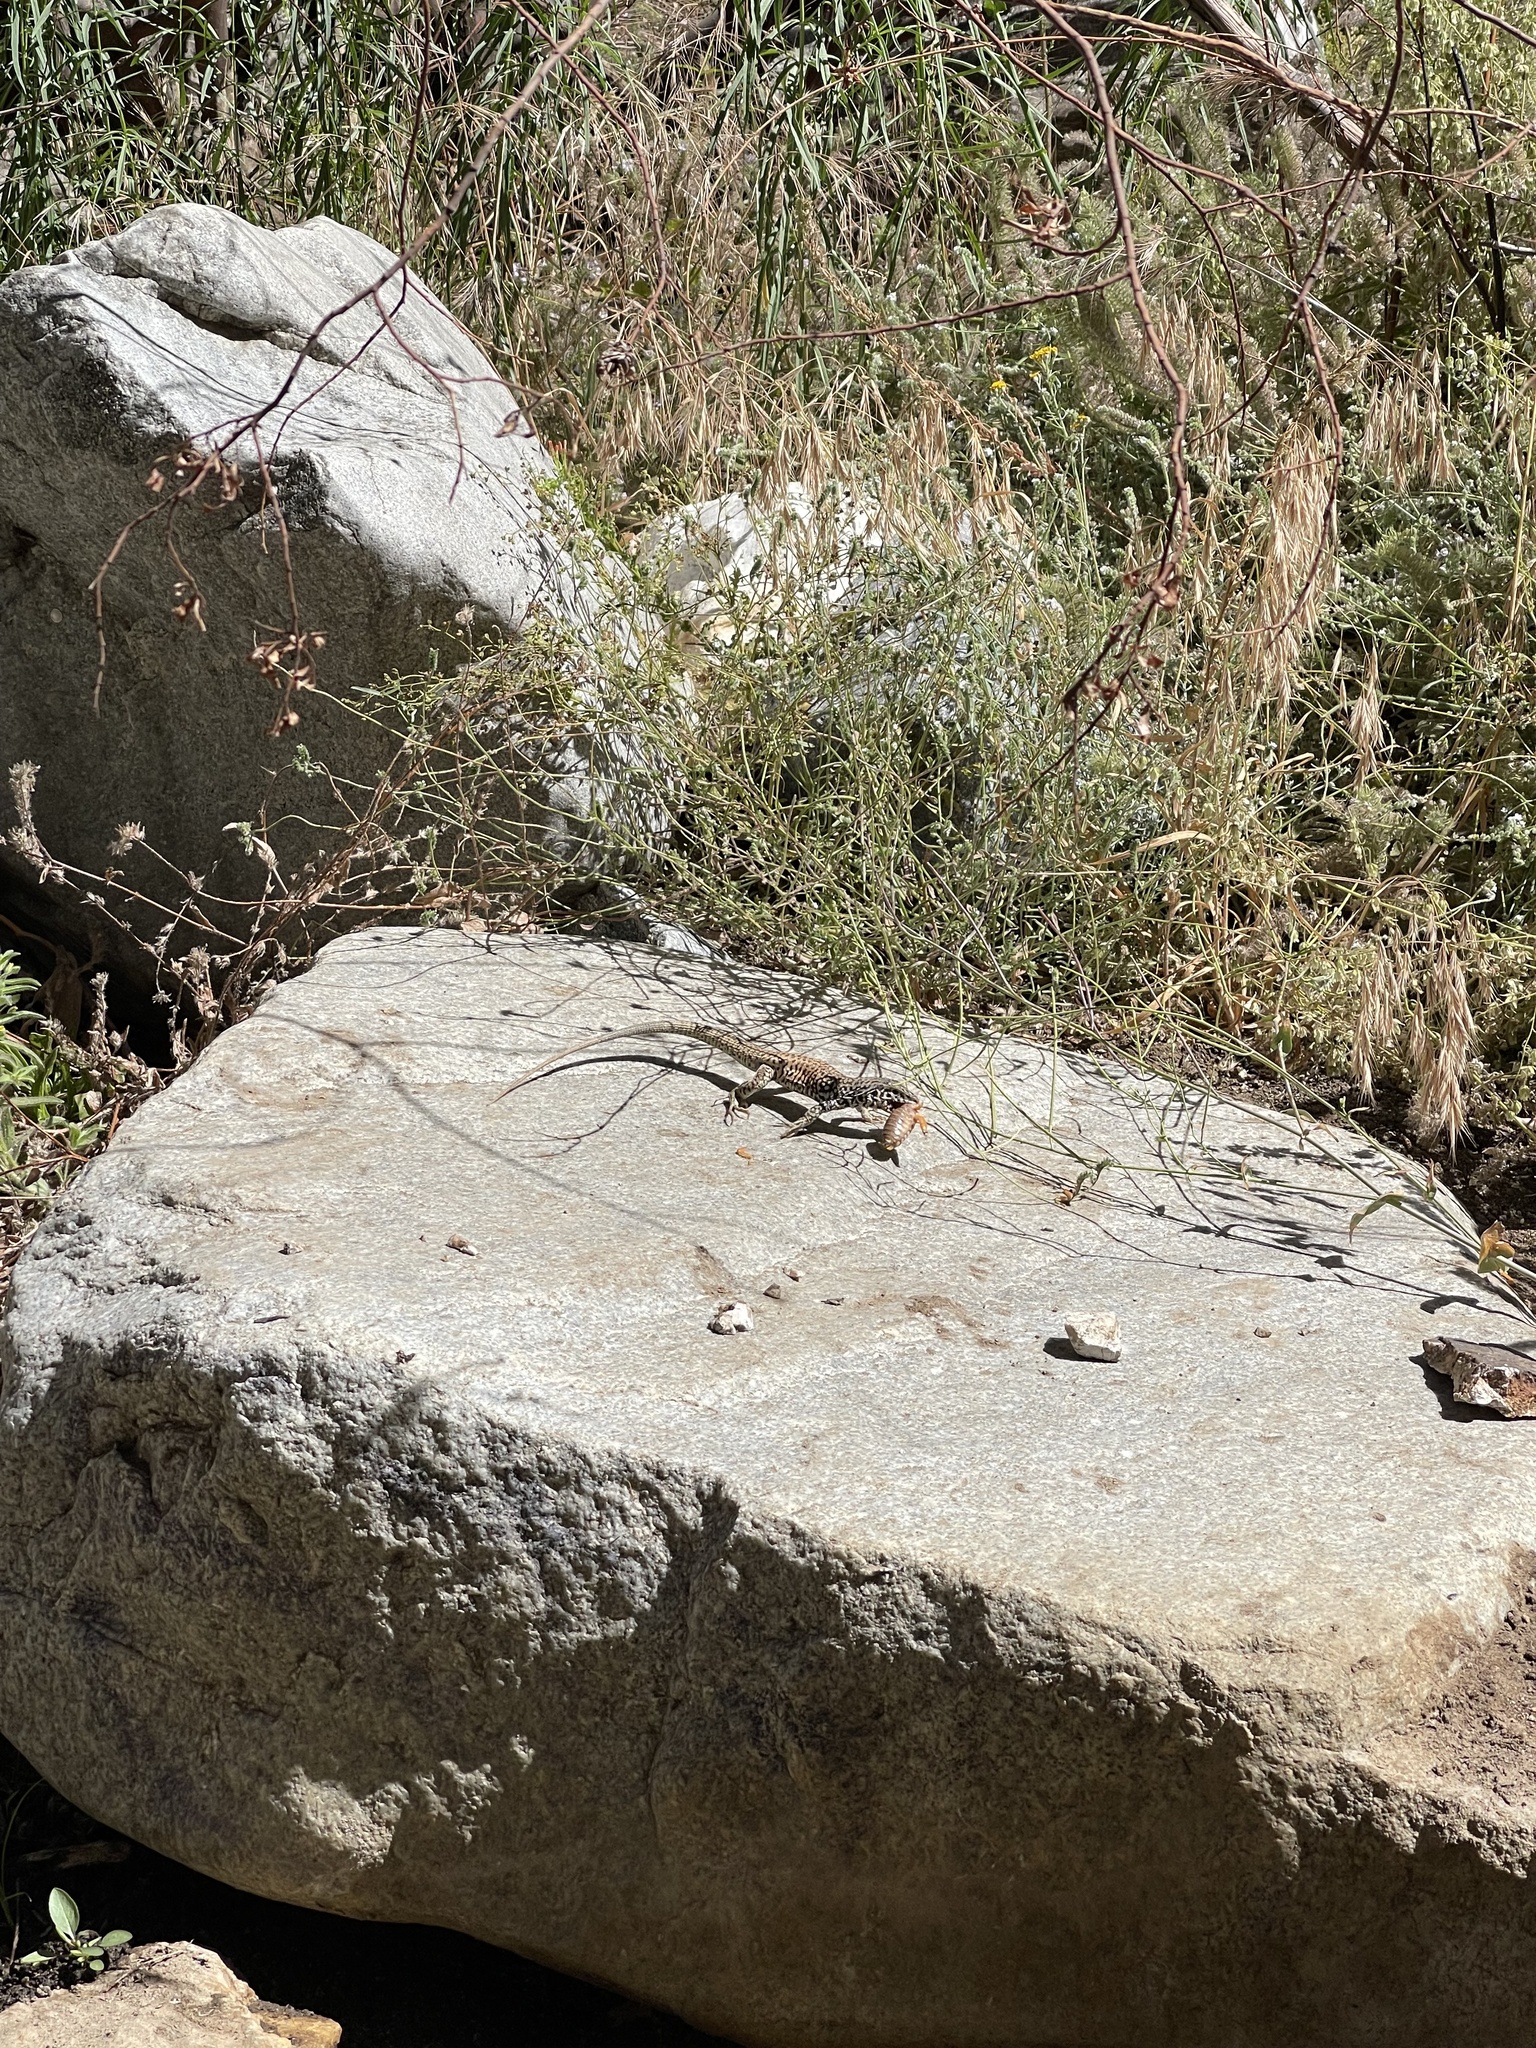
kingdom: Animalia
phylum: Chordata
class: Squamata
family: Teiidae
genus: Aspidoscelis
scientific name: Aspidoscelis tigris
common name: Tiger whiptail
